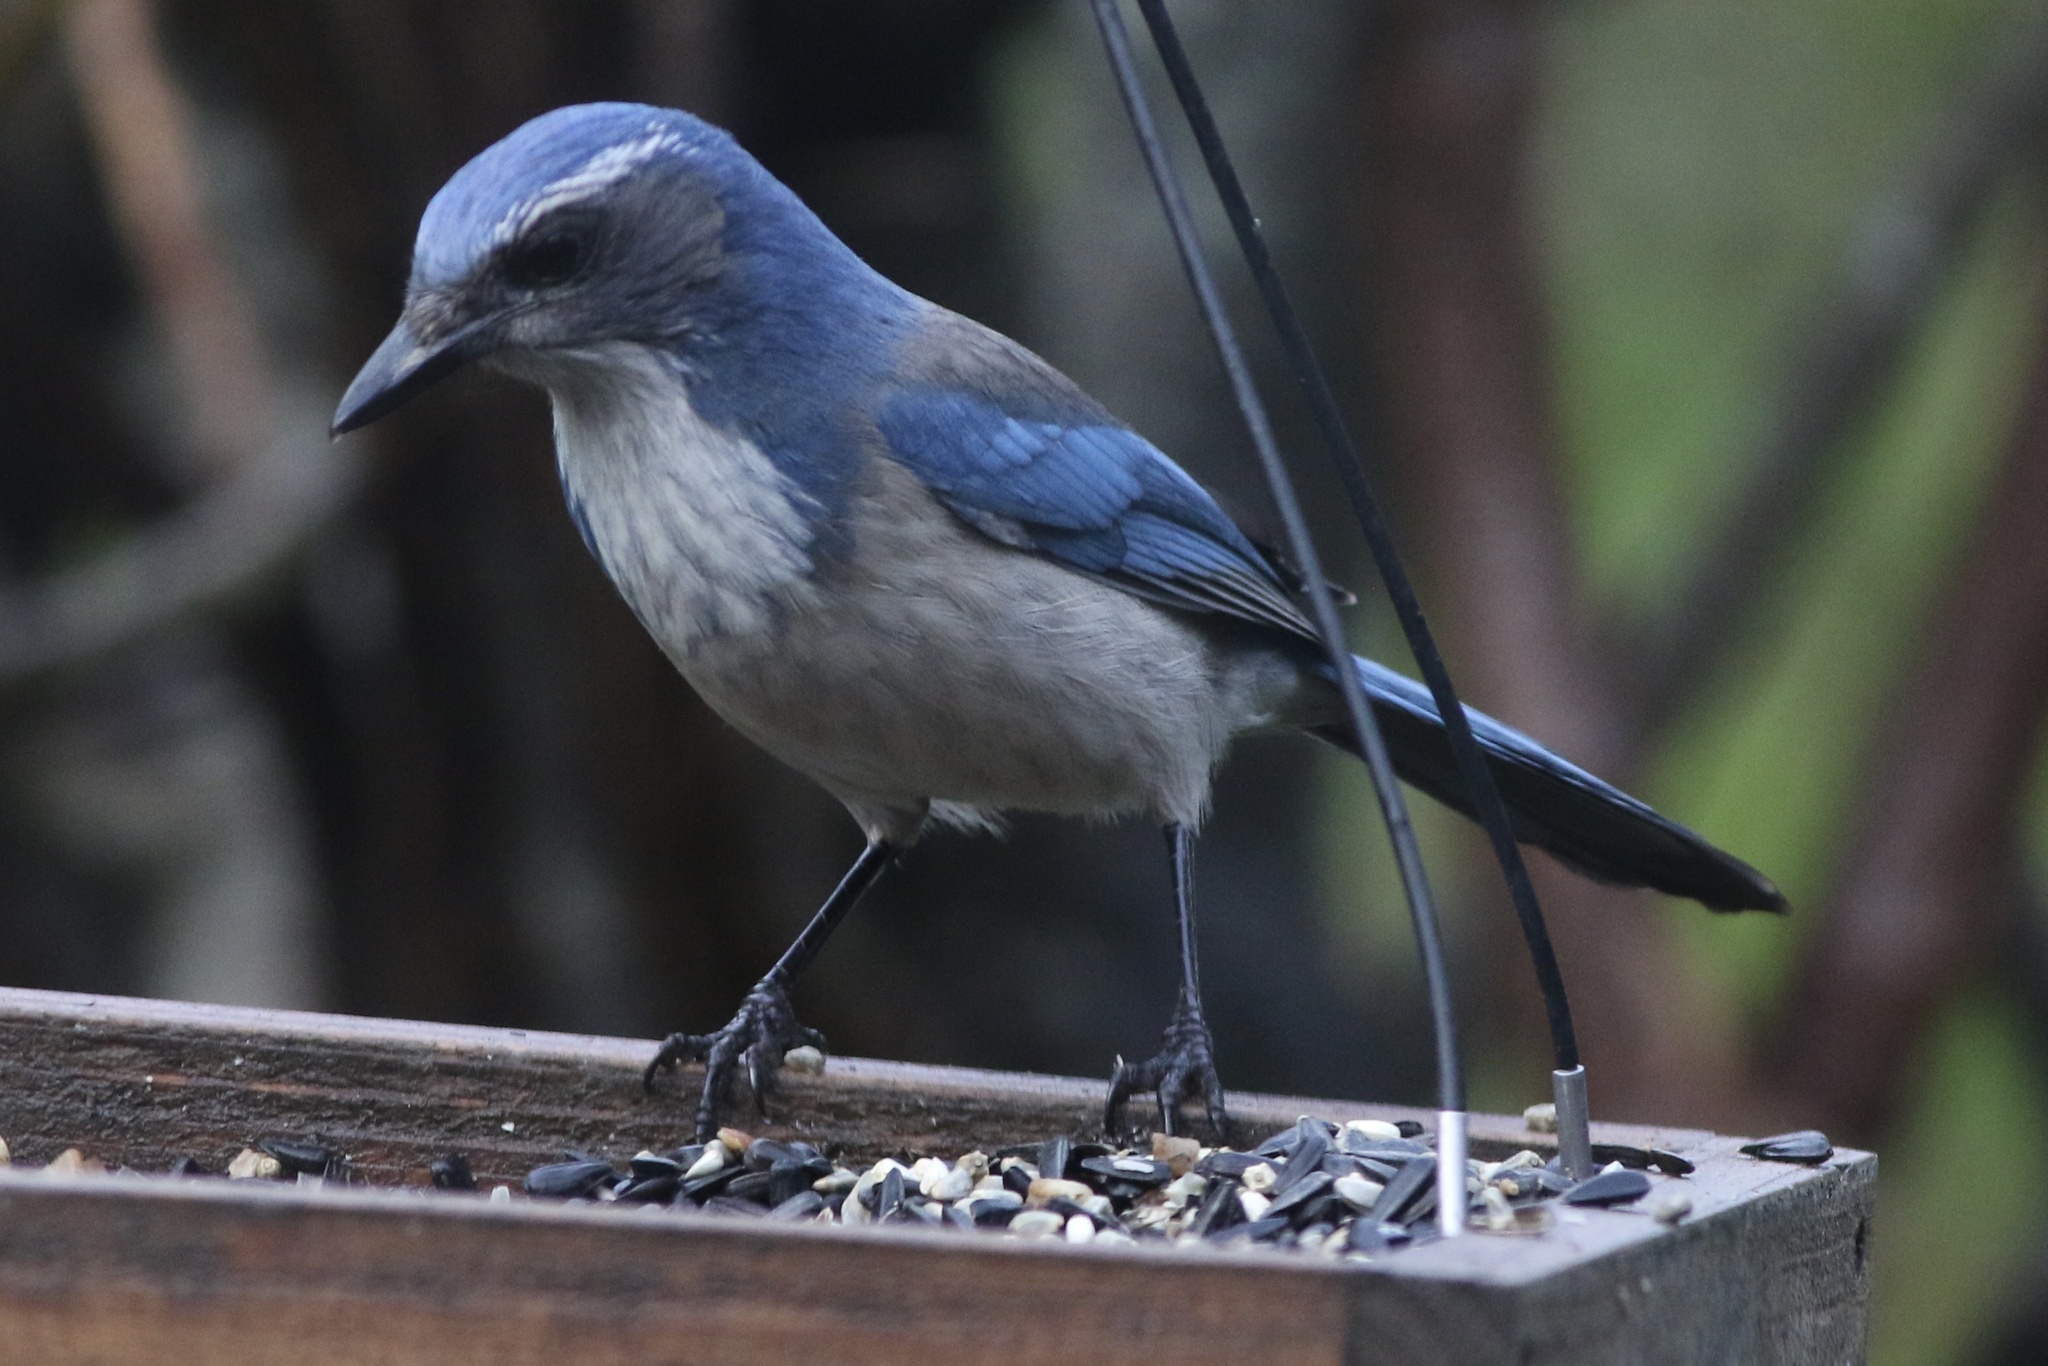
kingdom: Animalia
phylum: Chordata
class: Aves
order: Passeriformes
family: Corvidae
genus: Aphelocoma
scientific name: Aphelocoma californica
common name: California scrub-jay
